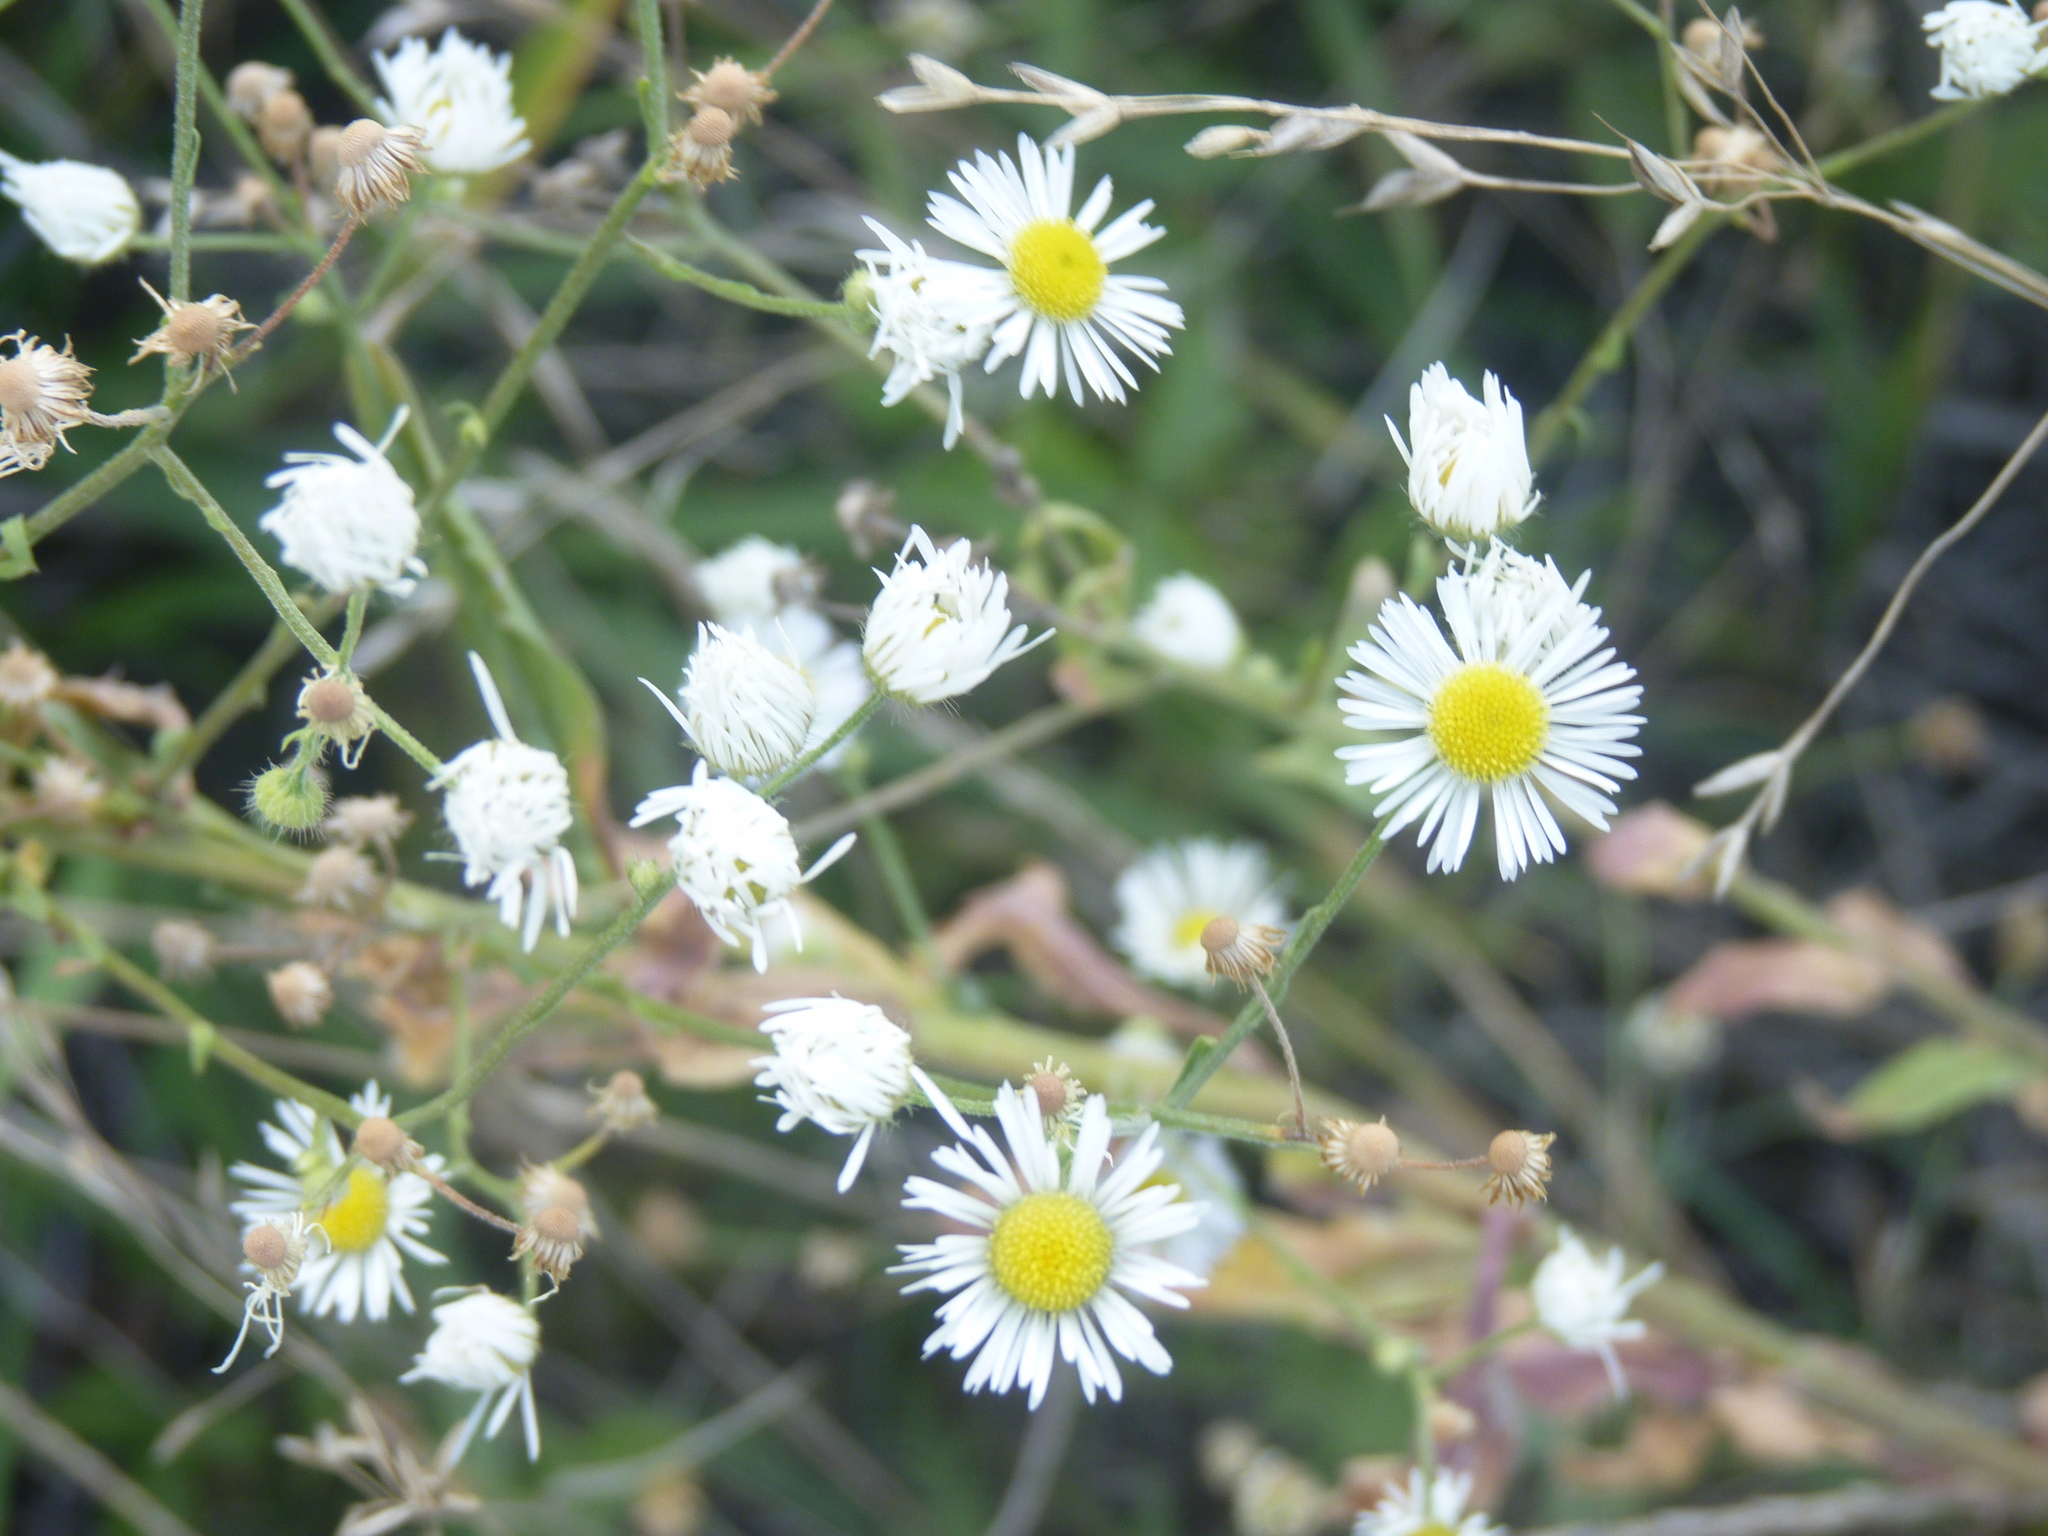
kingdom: Plantae
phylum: Tracheophyta
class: Magnoliopsida
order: Asterales
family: Asteraceae
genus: Erigeron
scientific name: Erigeron annuus
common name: Tall fleabane
